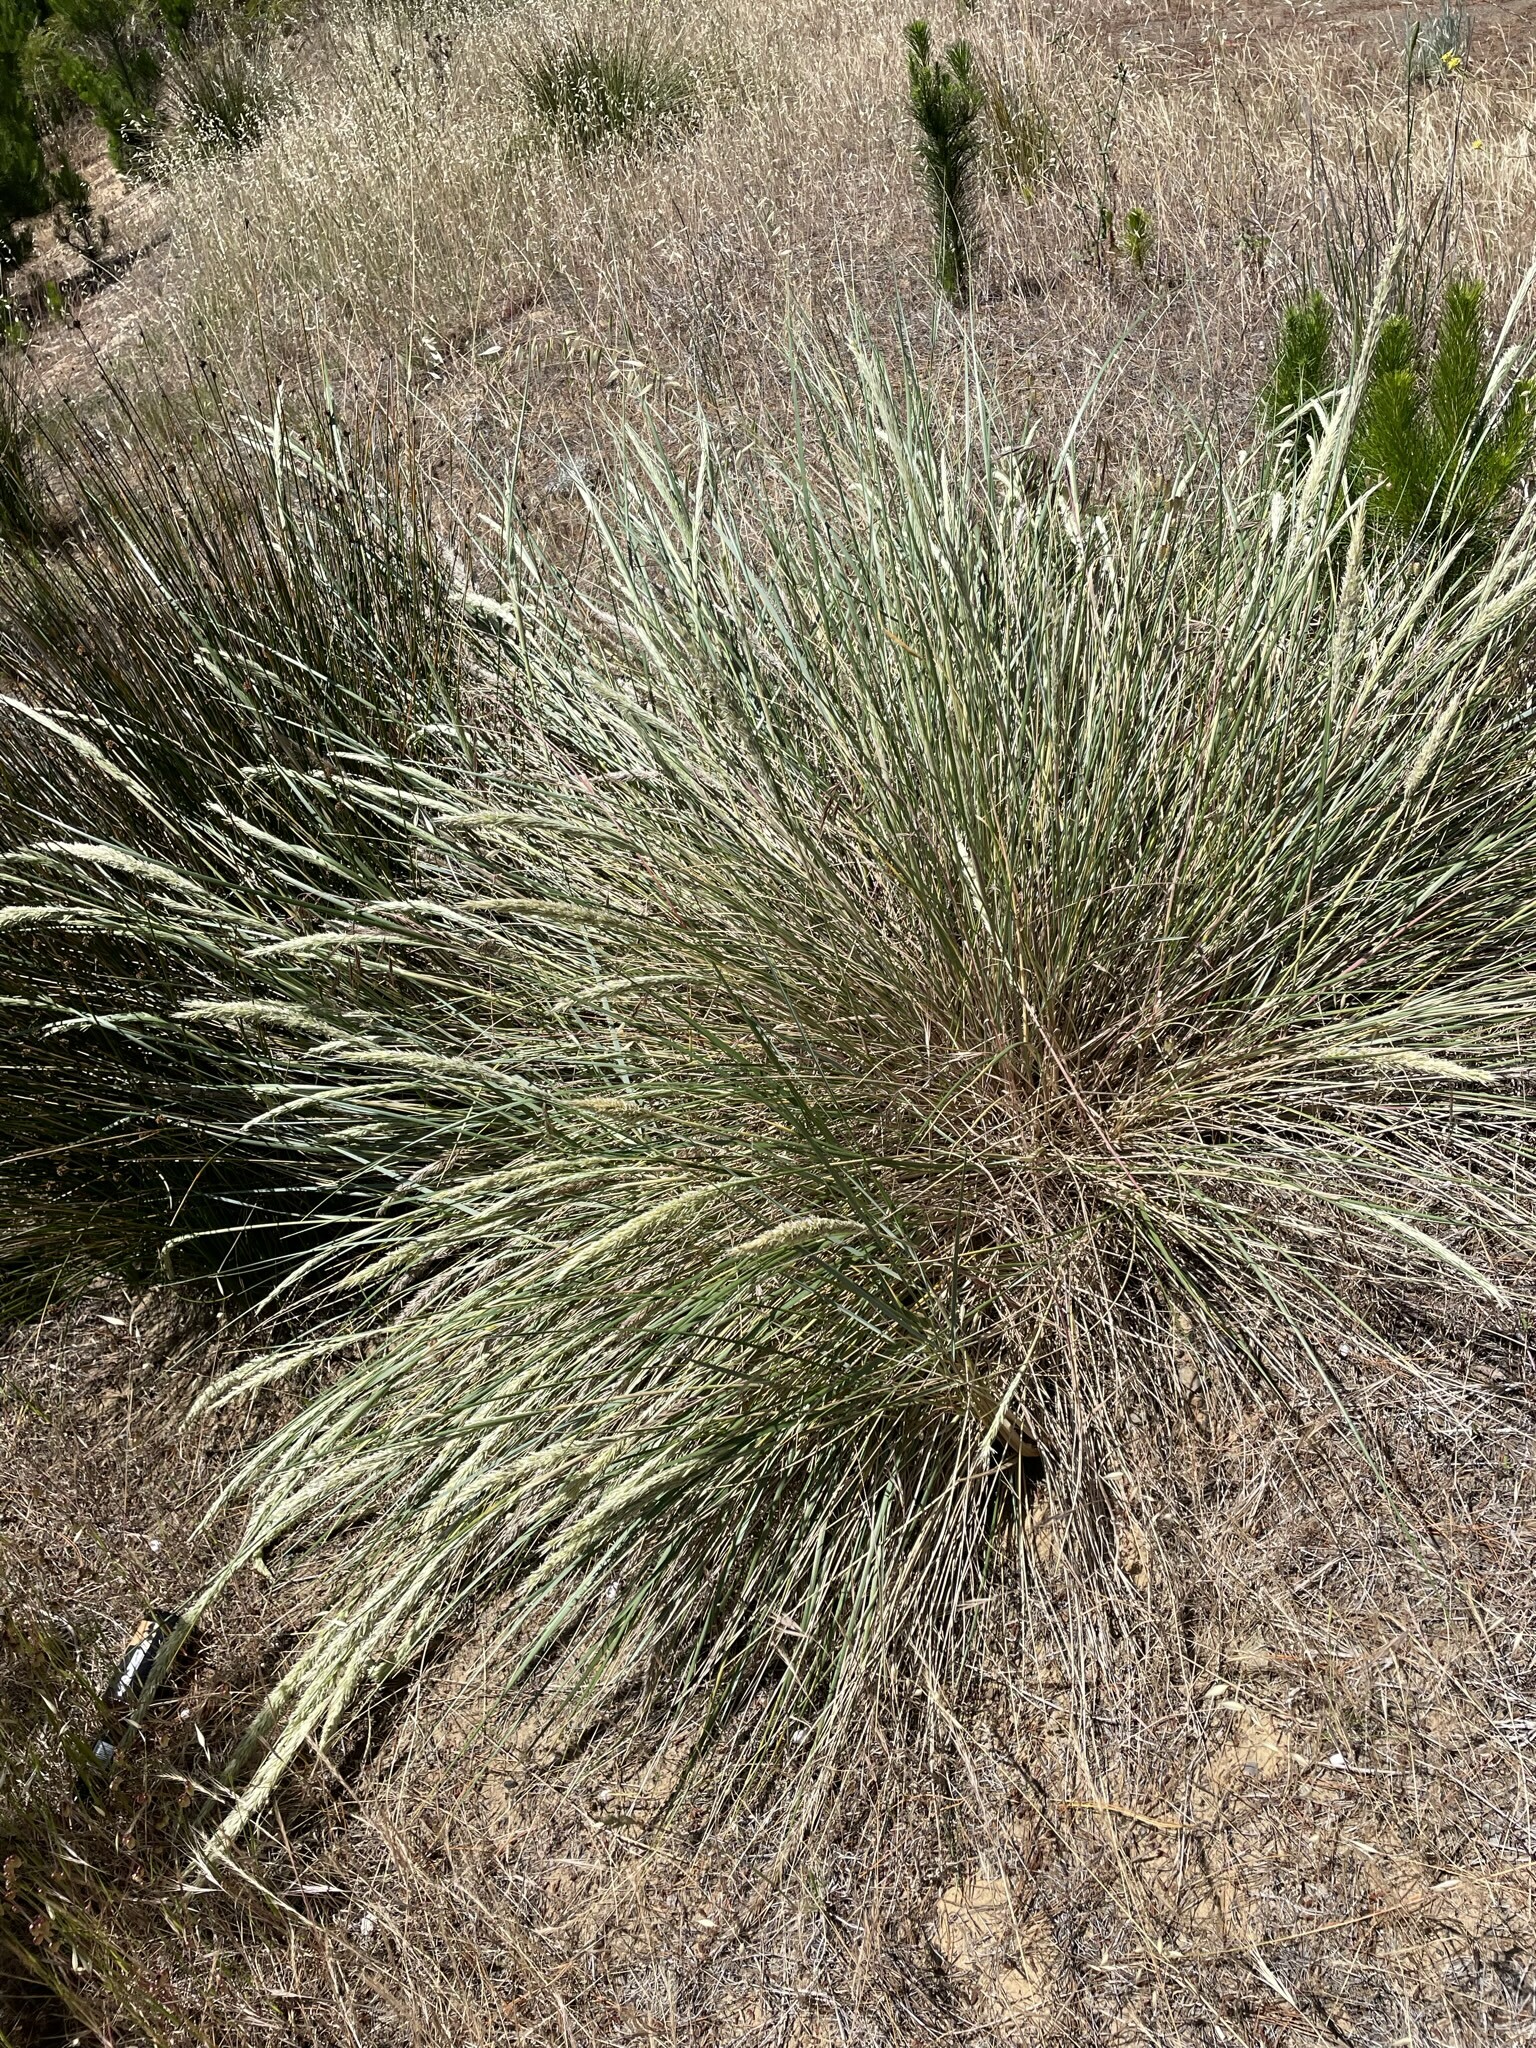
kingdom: Plantae
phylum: Tracheophyta
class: Liliopsida
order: Poales
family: Poaceae
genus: Calamagrostis
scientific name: Calamagrostis arenaria
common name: European beachgrass
